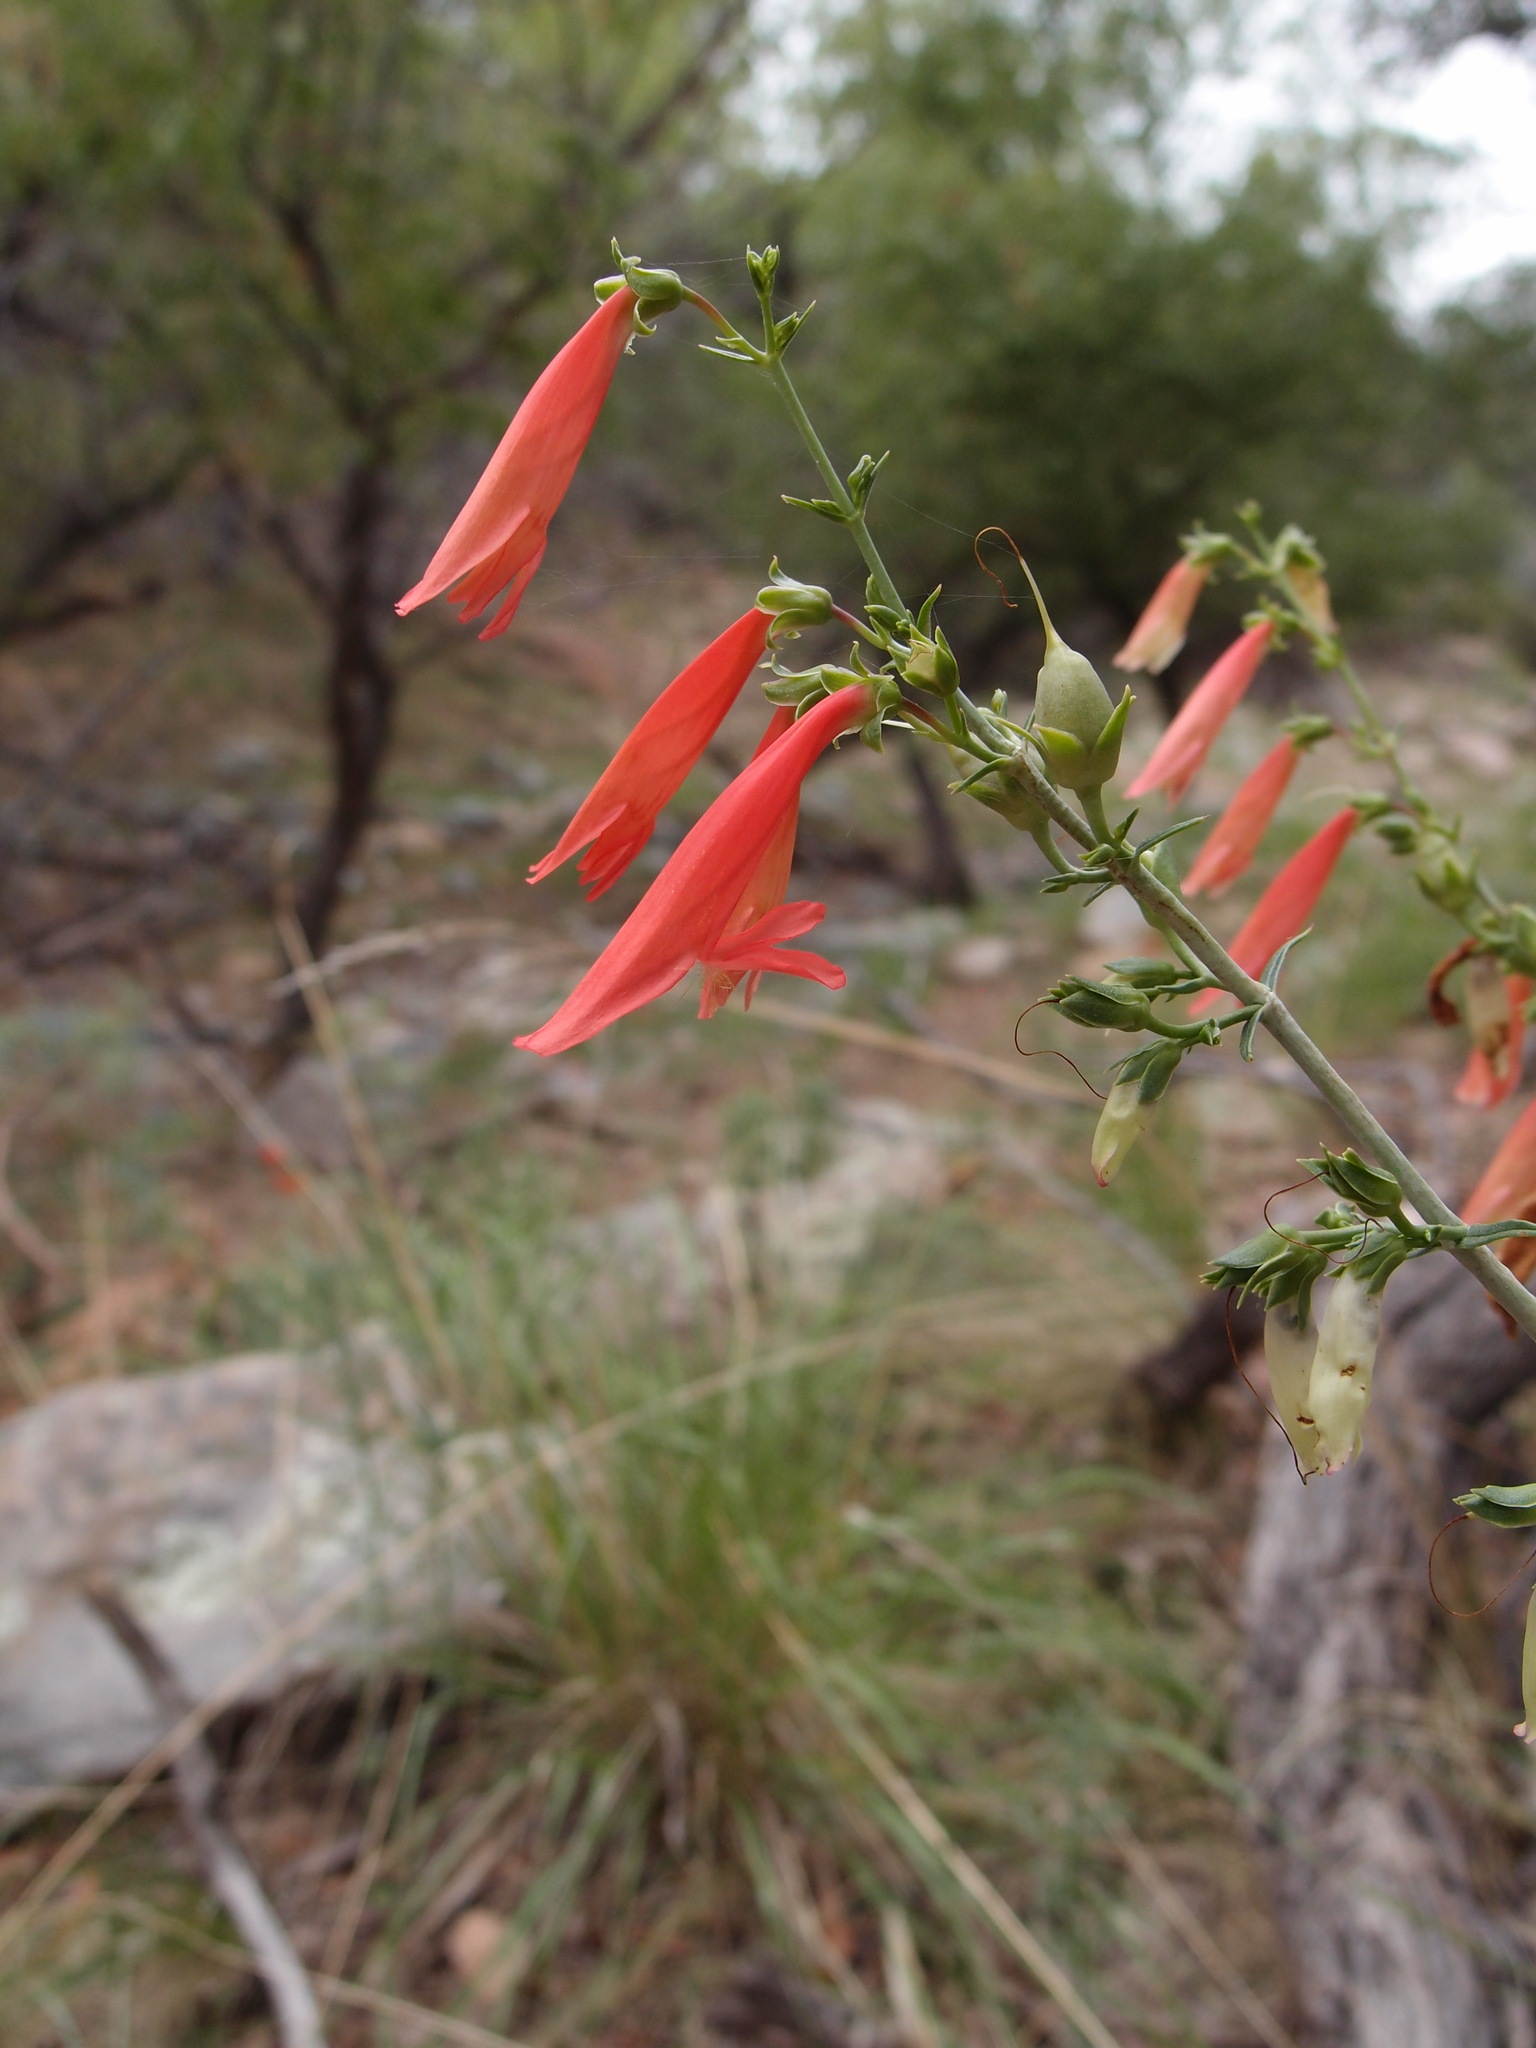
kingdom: Plantae
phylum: Tracheophyta
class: Magnoliopsida
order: Lamiales
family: Plantaginaceae
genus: Penstemon
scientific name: Penstemon barbatus
